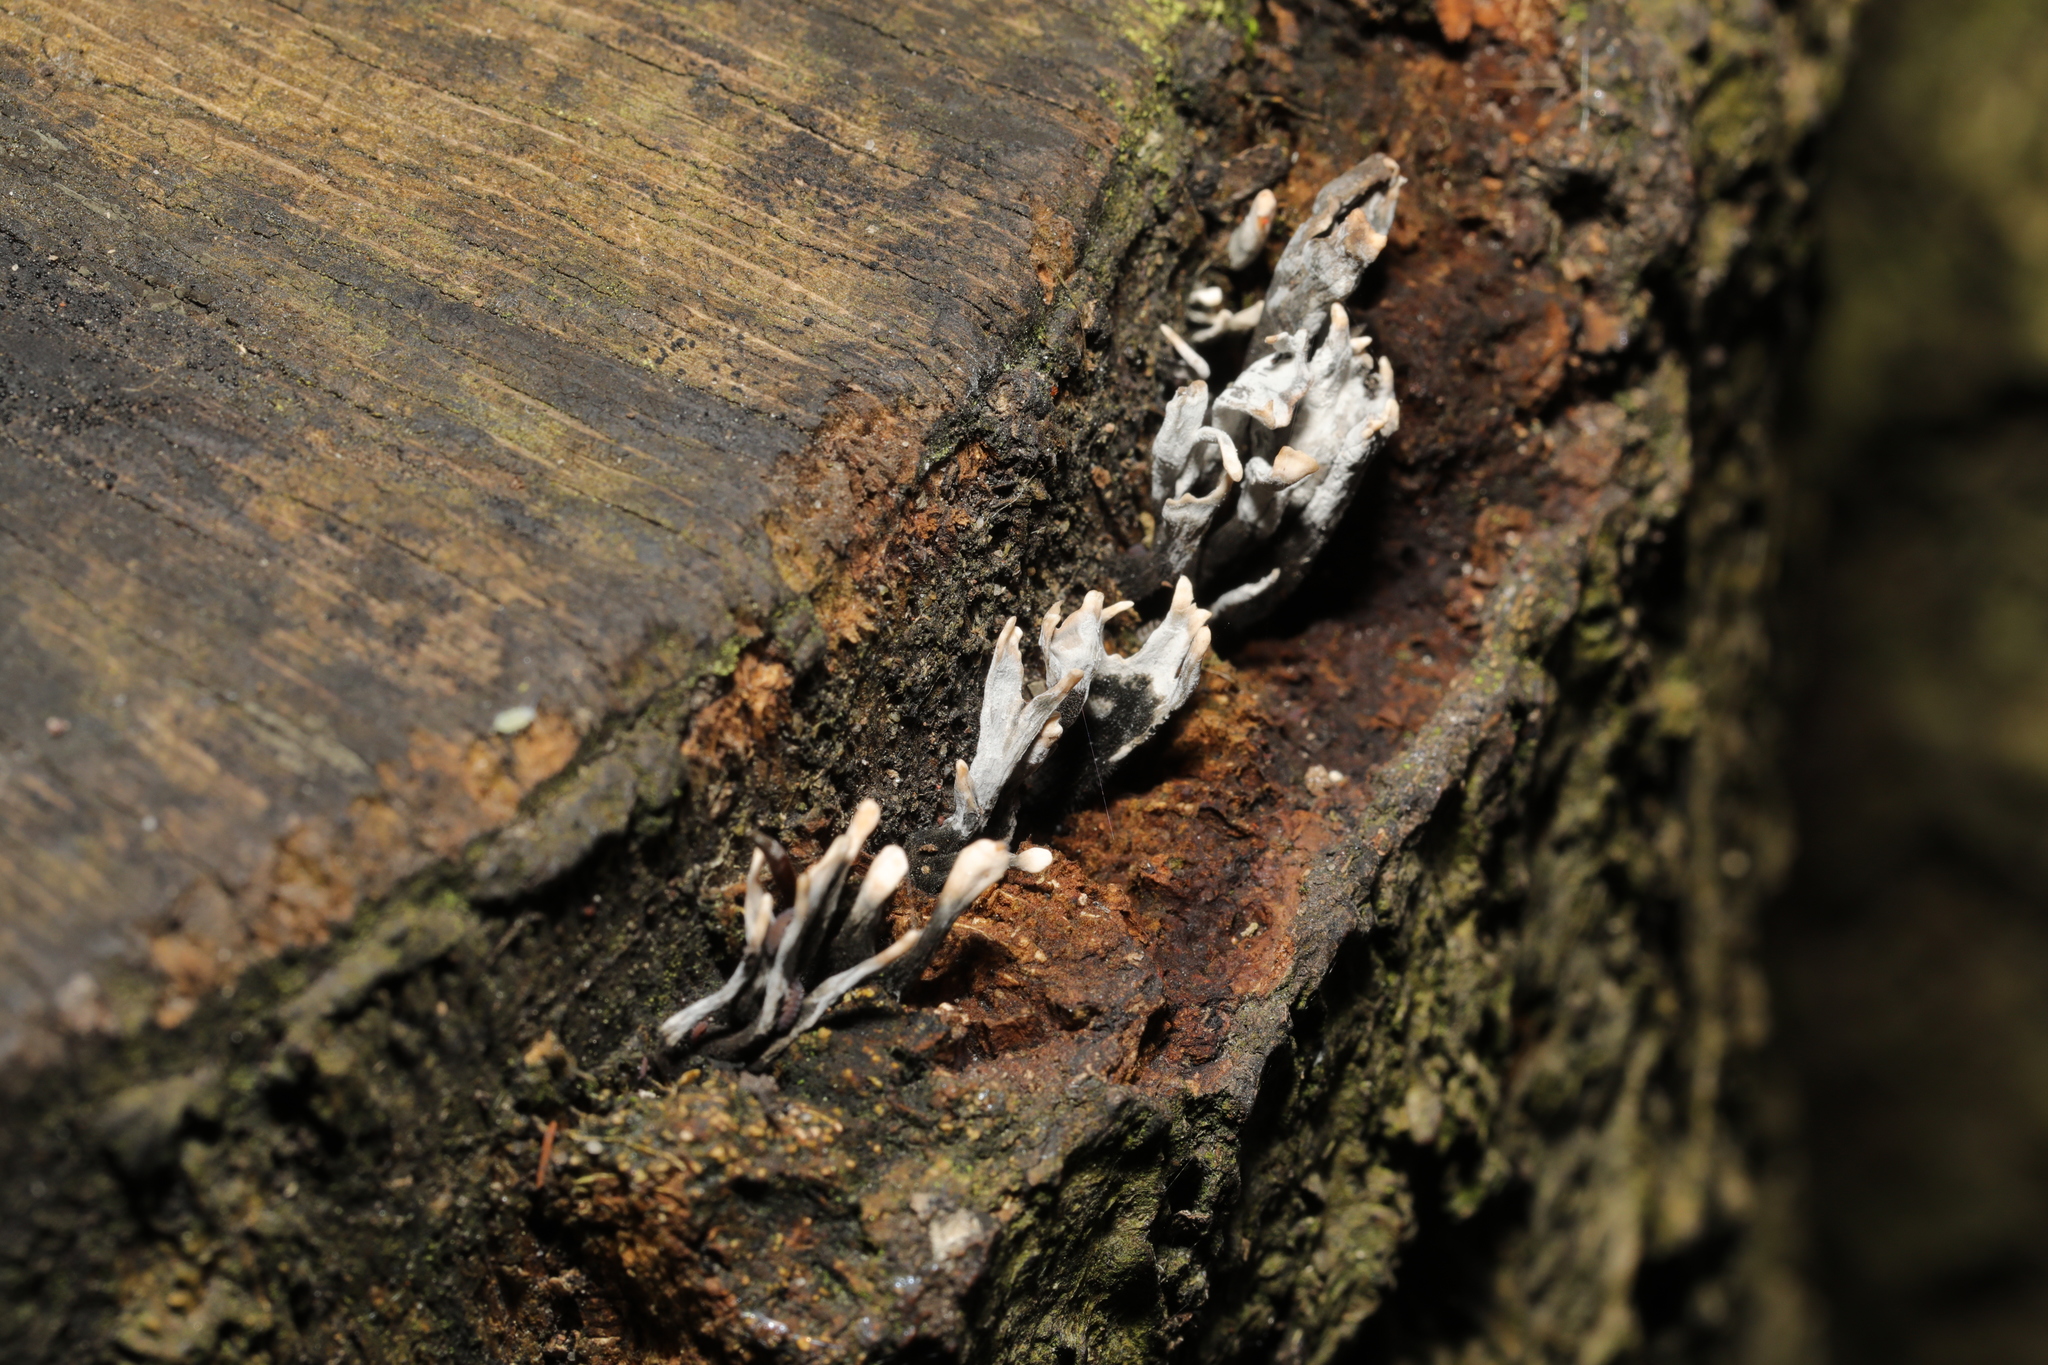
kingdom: Fungi
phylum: Ascomycota
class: Sordariomycetes
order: Xylariales
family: Xylariaceae
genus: Xylaria
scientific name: Xylaria hypoxylon
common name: Candle-snuff fungus
